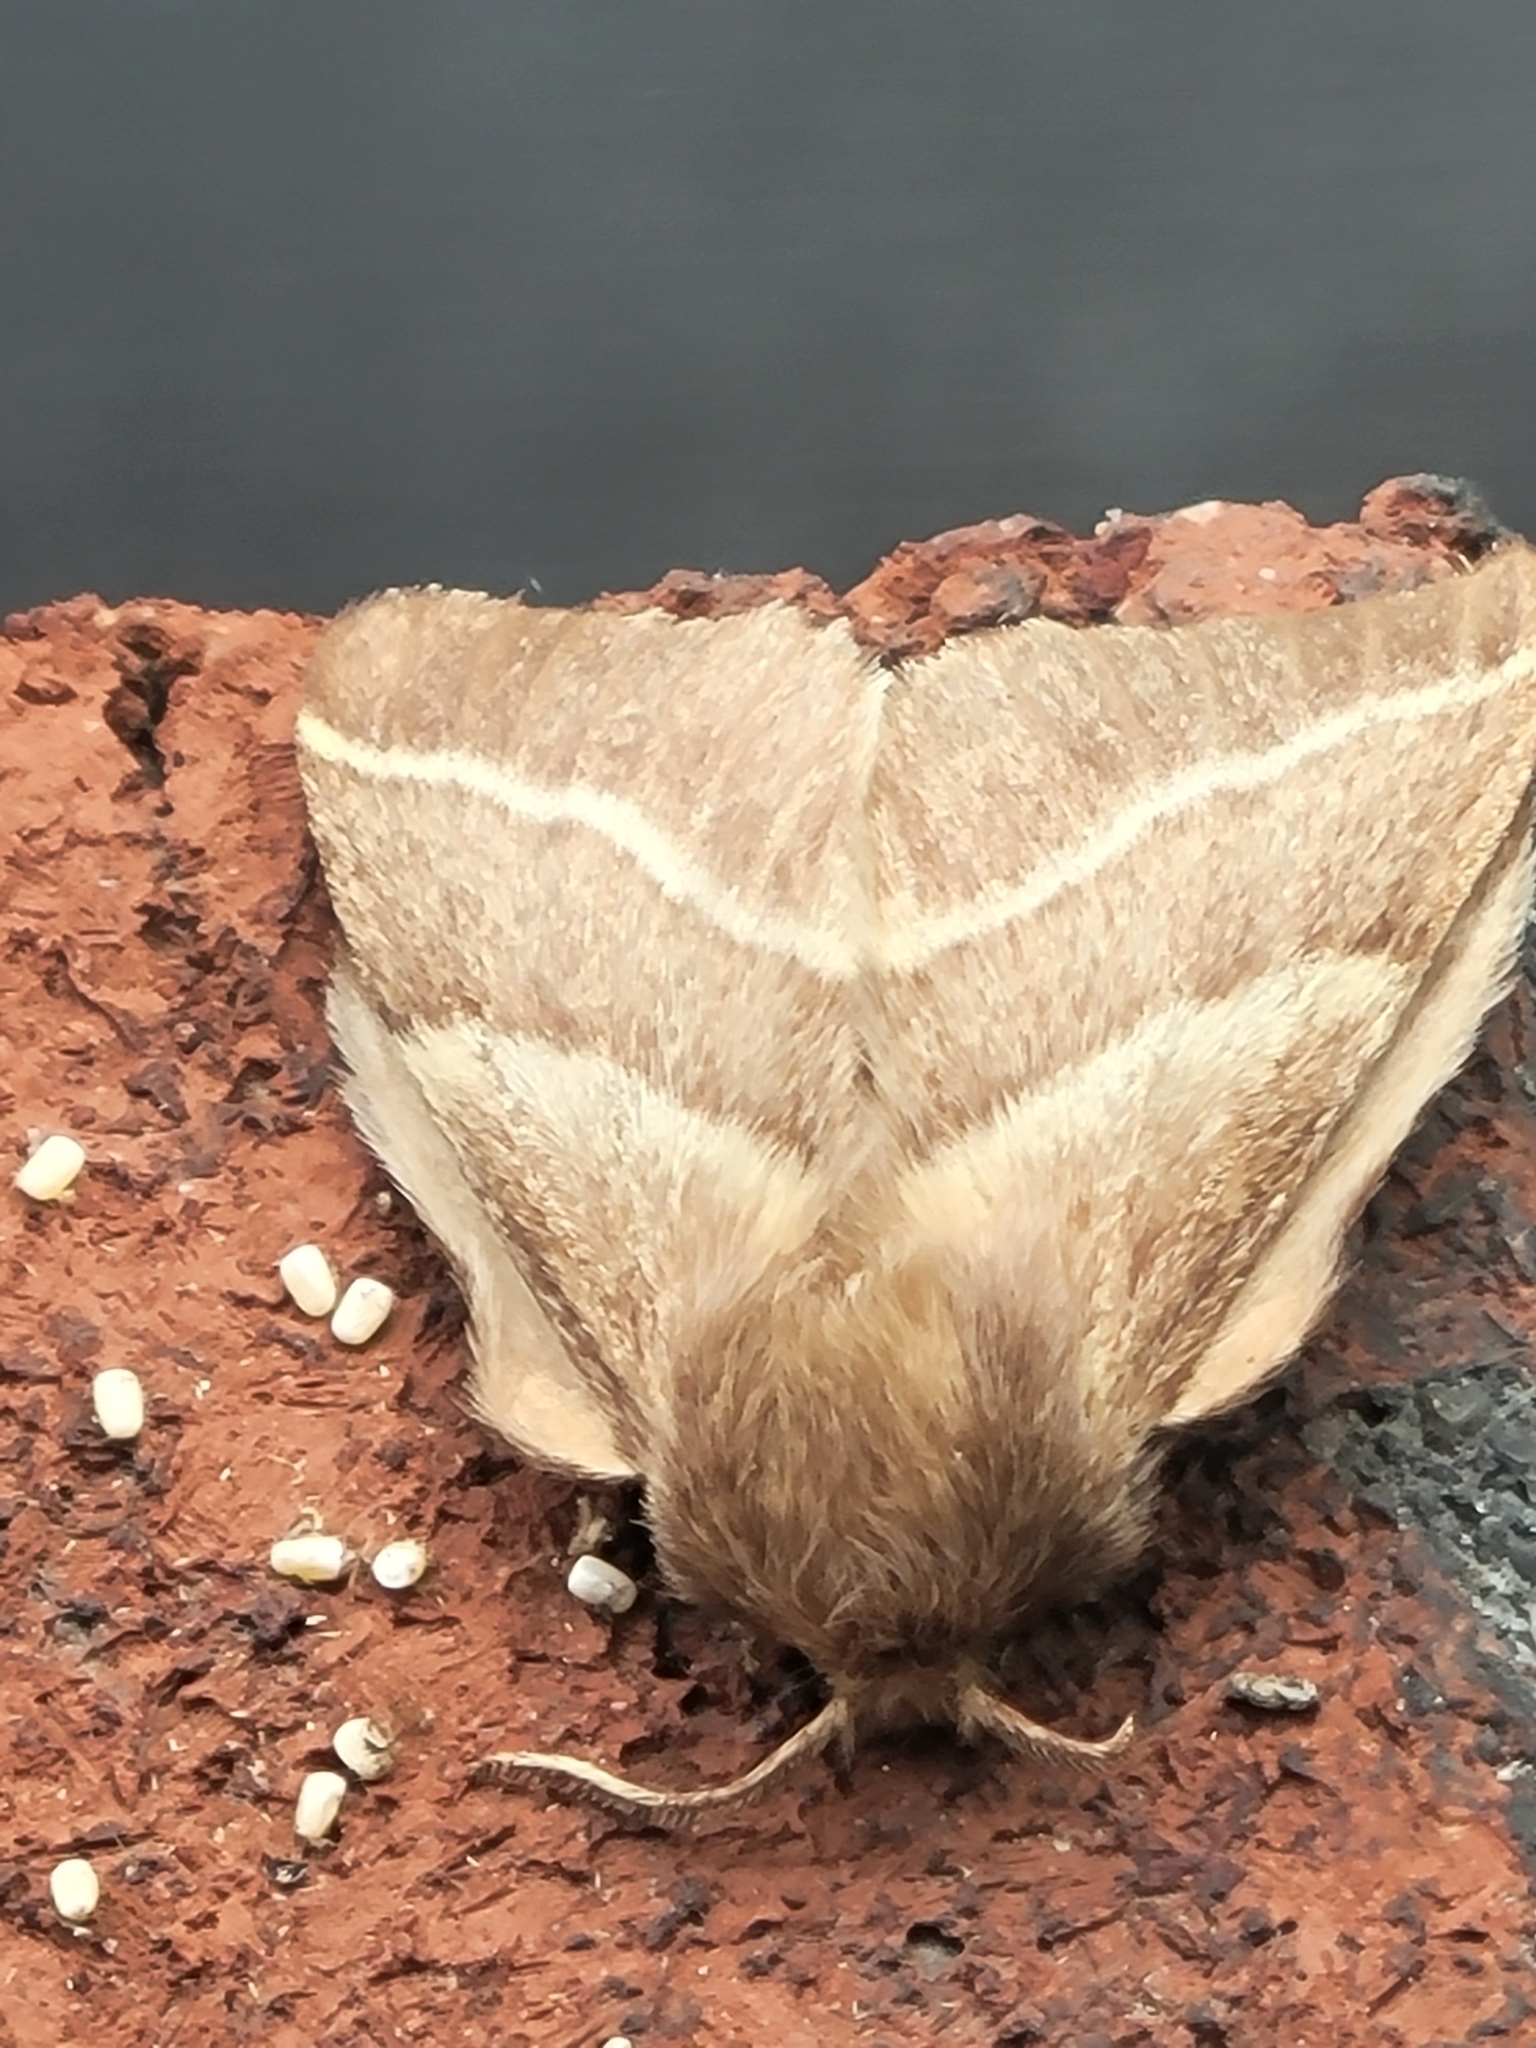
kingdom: Animalia
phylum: Arthropoda
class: Insecta
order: Lepidoptera
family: Lasiocampidae
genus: Malacosoma
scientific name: Malacosoma americana
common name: Eastern tent caterpillar moth
